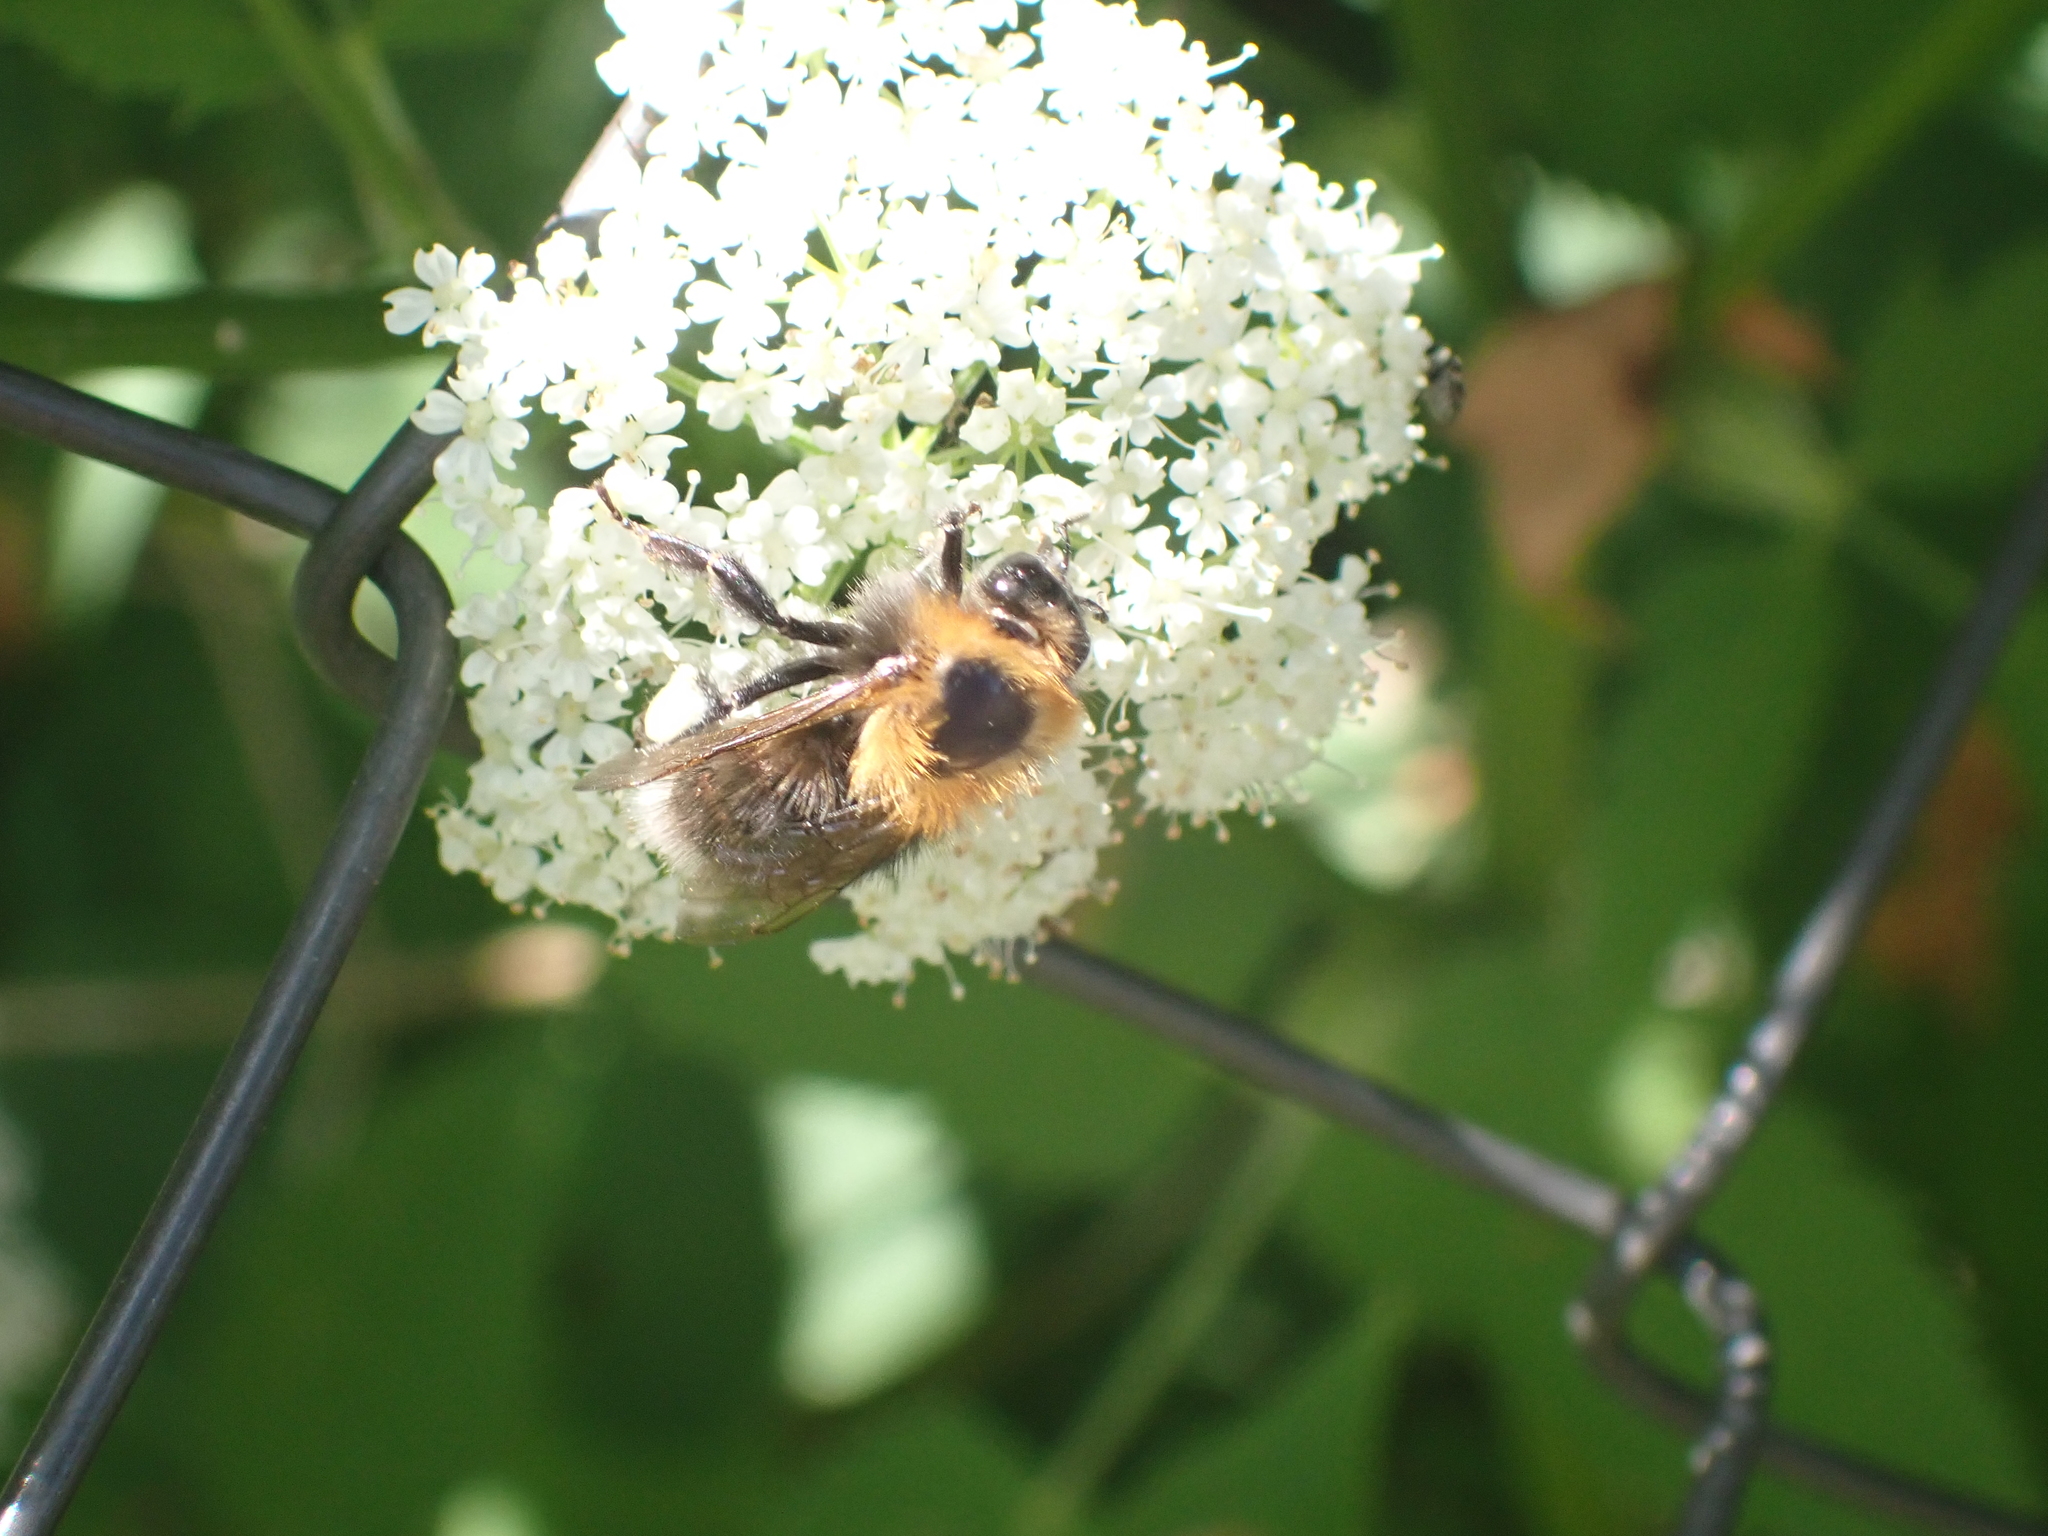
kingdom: Animalia
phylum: Arthropoda
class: Insecta
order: Hymenoptera
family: Apidae
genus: Bombus
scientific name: Bombus hypnorum
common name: New garden bumblebee
